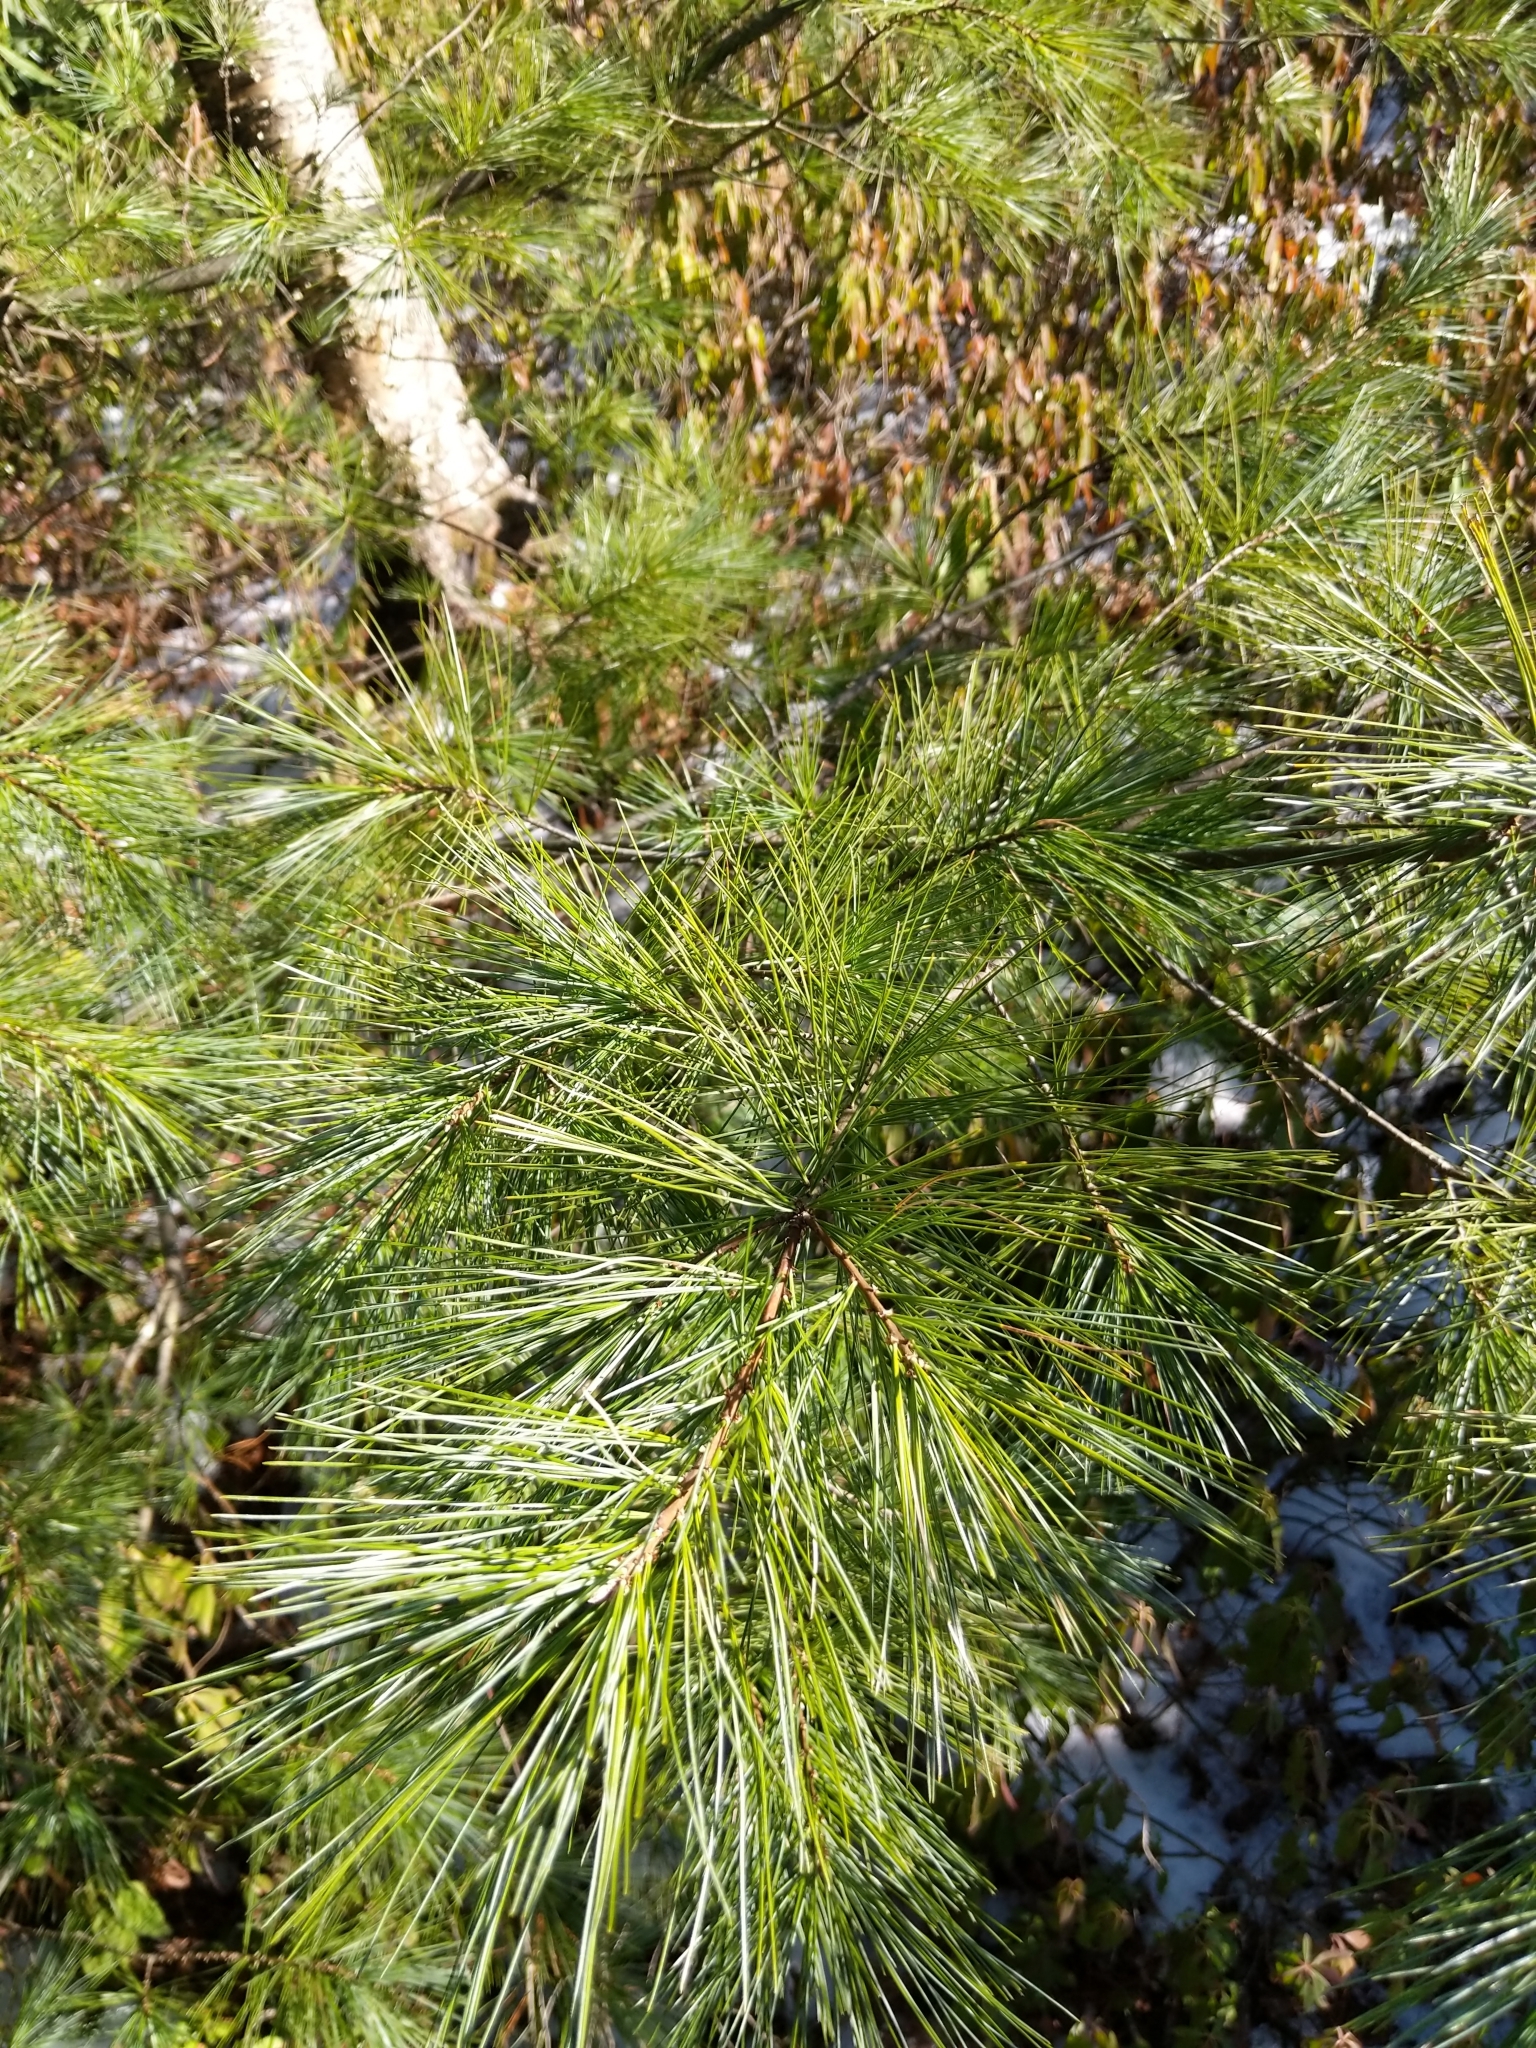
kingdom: Plantae
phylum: Tracheophyta
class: Pinopsida
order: Pinales
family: Pinaceae
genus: Pinus
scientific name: Pinus strobus
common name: Weymouth pine
